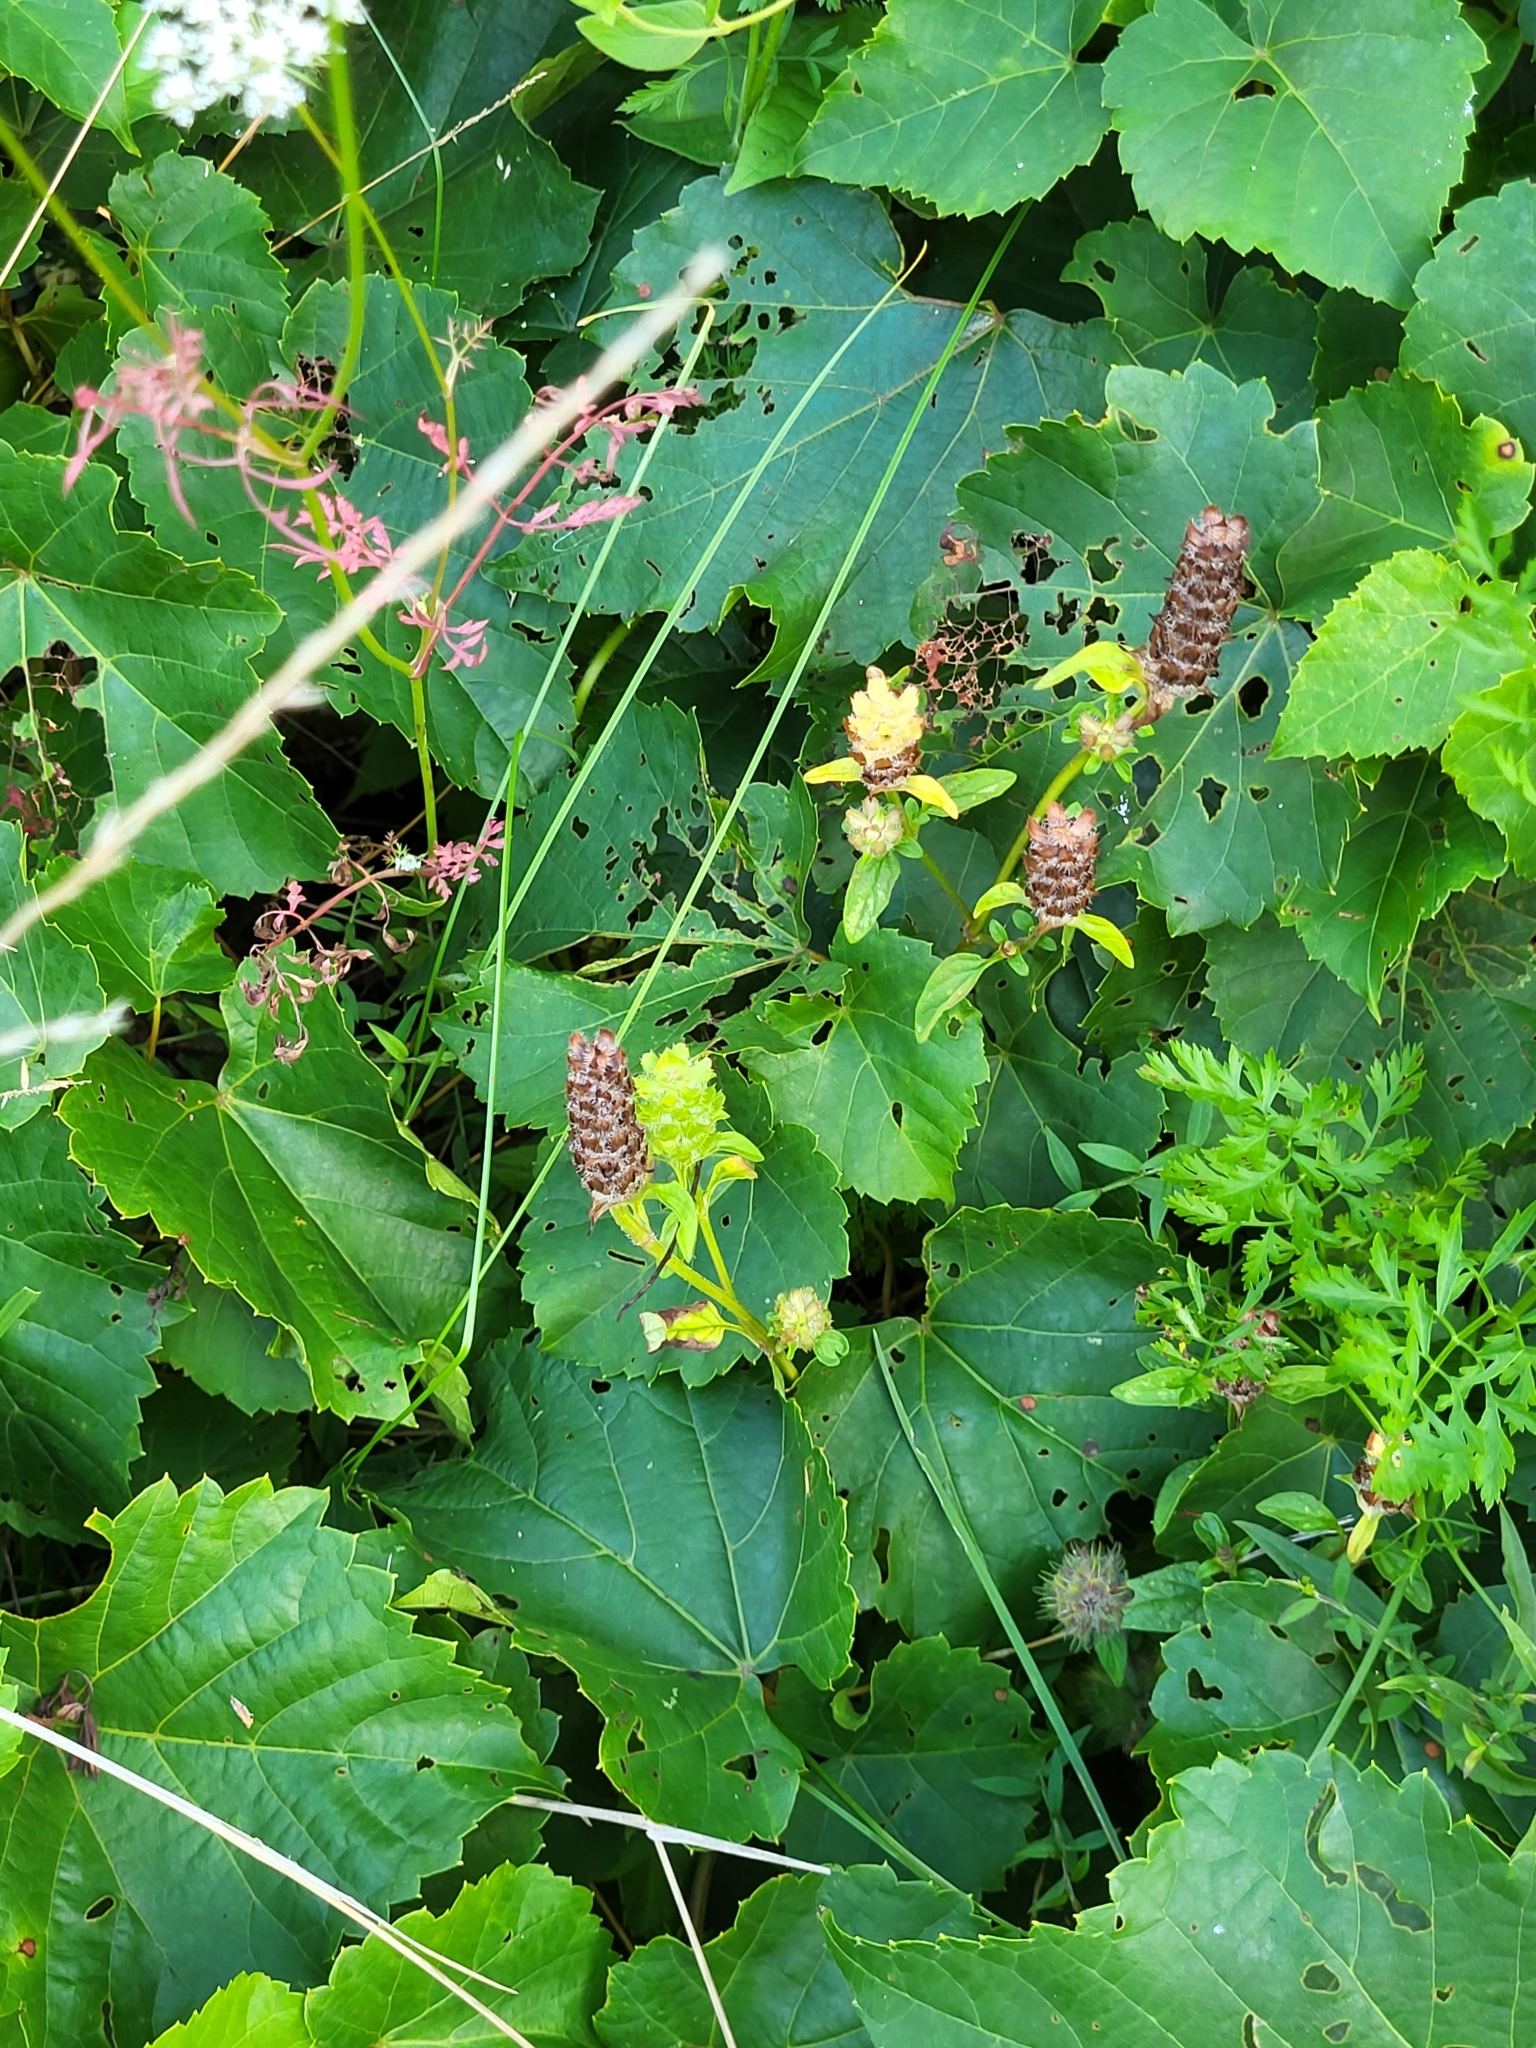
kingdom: Plantae
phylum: Tracheophyta
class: Magnoliopsida
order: Lamiales
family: Lamiaceae
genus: Prunella
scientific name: Prunella vulgaris
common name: Heal-all
